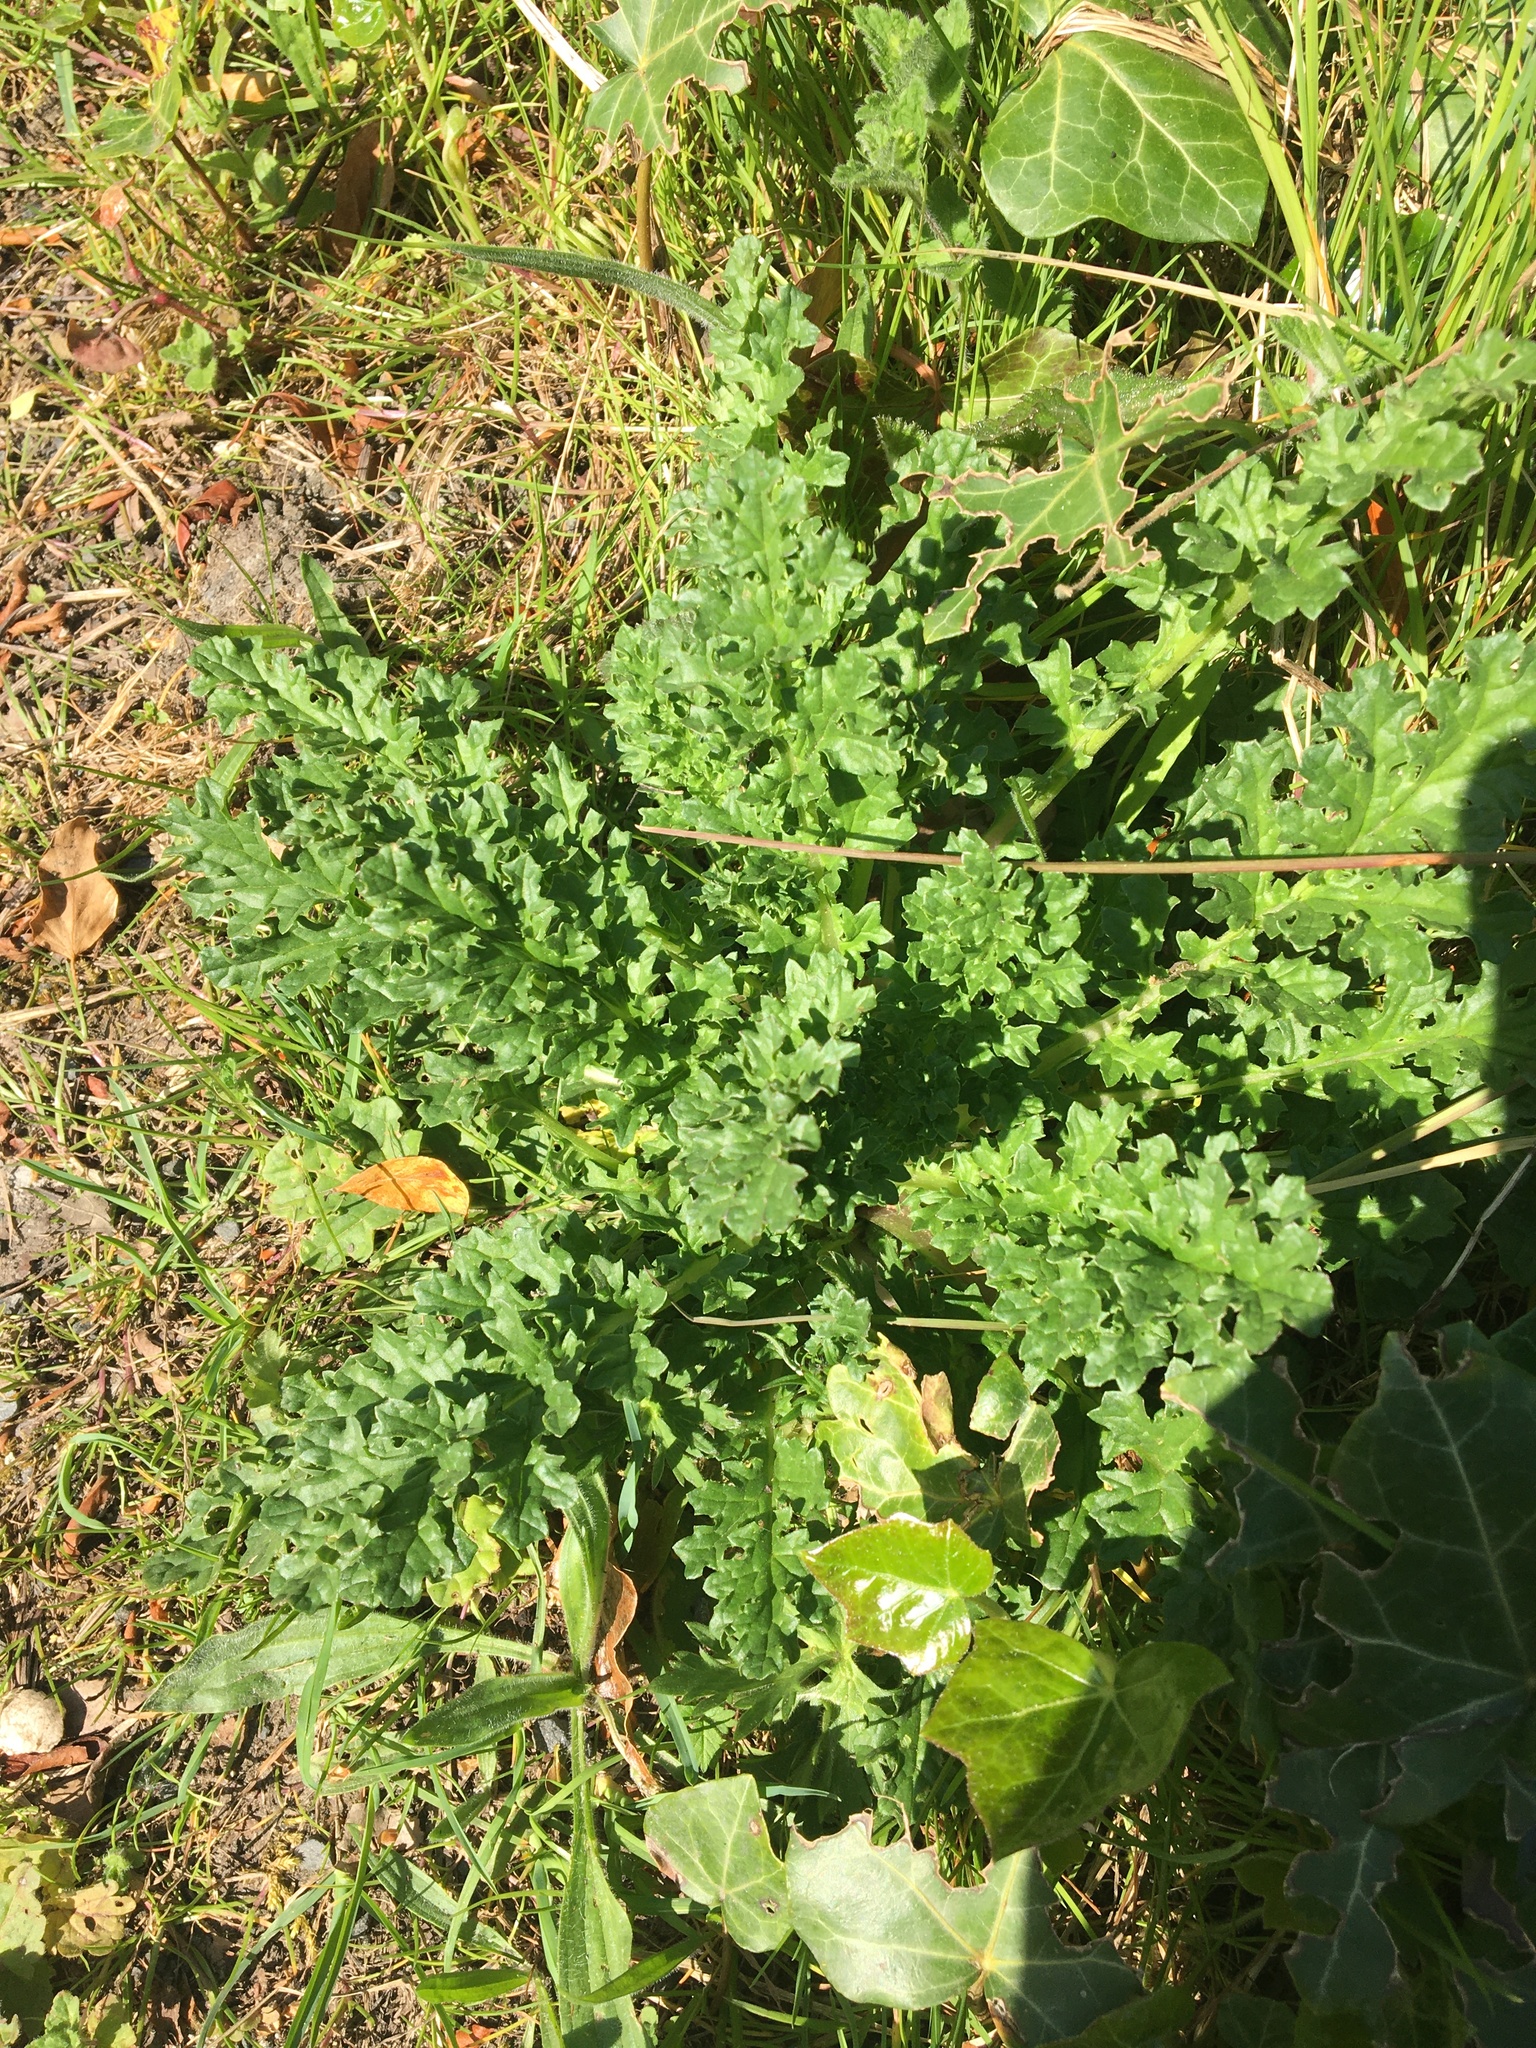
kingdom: Plantae
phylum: Tracheophyta
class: Magnoliopsida
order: Asterales
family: Asteraceae
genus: Jacobaea
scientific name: Jacobaea vulgaris
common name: Stinking willie
